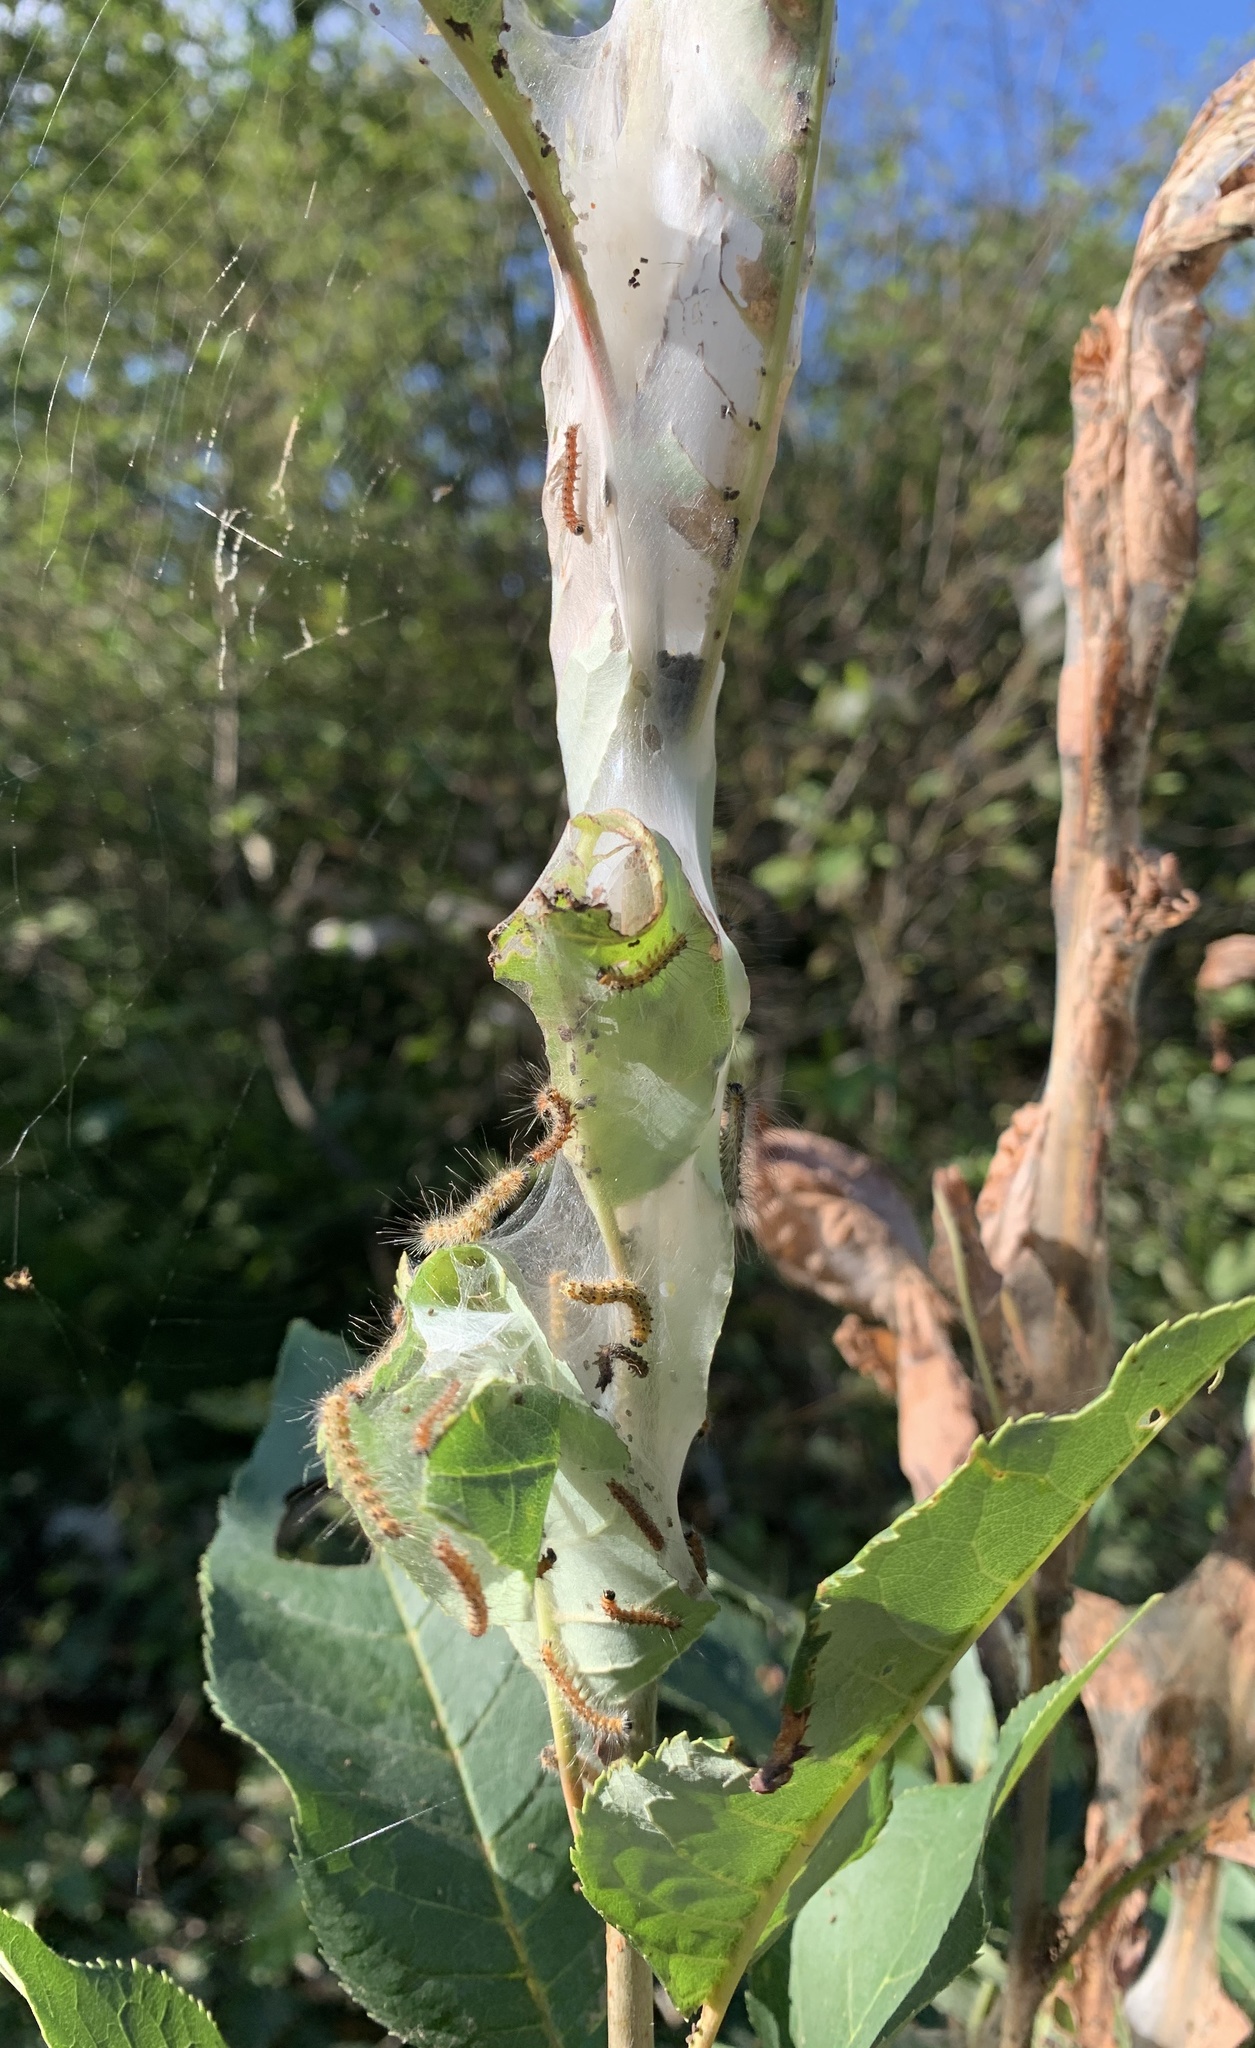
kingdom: Animalia
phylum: Arthropoda
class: Insecta
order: Lepidoptera
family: Erebidae
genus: Hyphantria
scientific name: Hyphantria cunea
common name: American white moth
